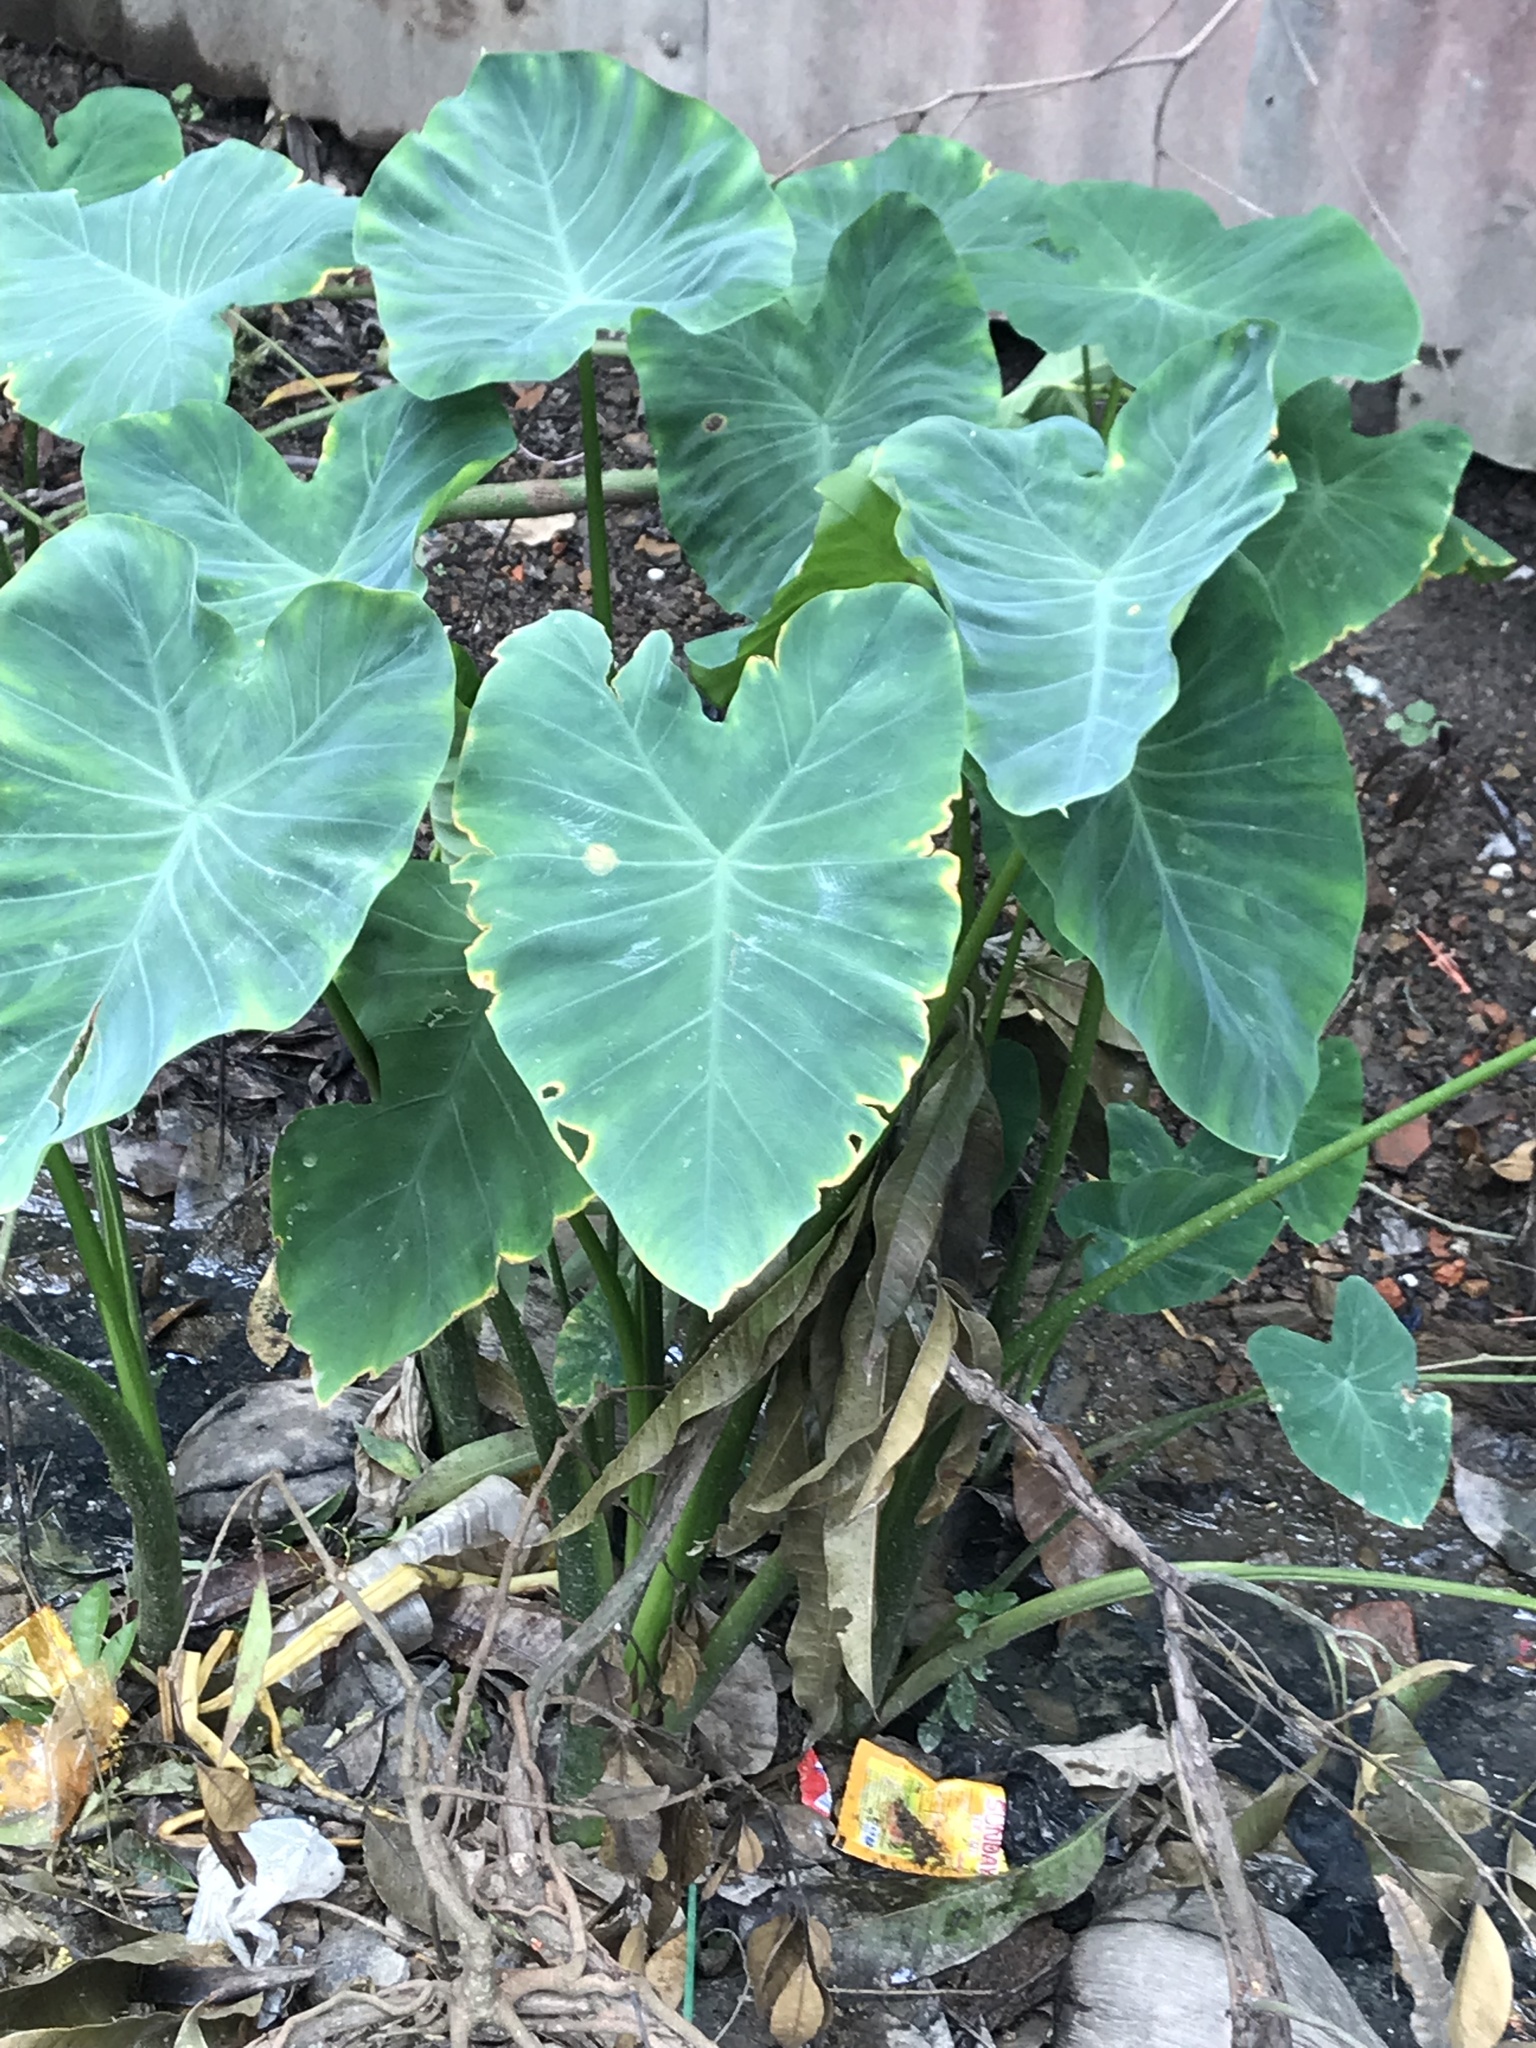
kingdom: Plantae
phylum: Tracheophyta
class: Liliopsida
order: Alismatales
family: Araceae
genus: Colocasia
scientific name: Colocasia esculenta
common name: Taro
